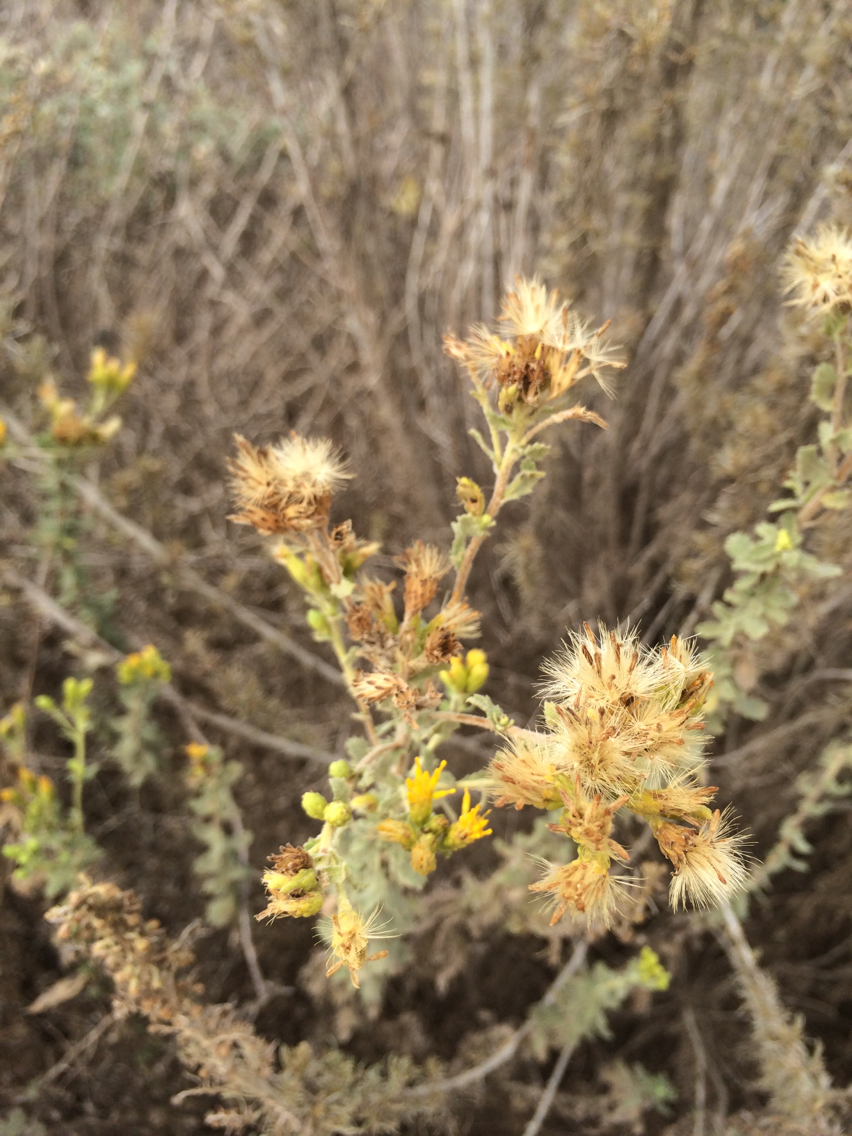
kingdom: Plantae
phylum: Tracheophyta
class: Magnoliopsida
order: Asterales
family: Asteraceae
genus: Isocoma
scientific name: Isocoma menziesii
